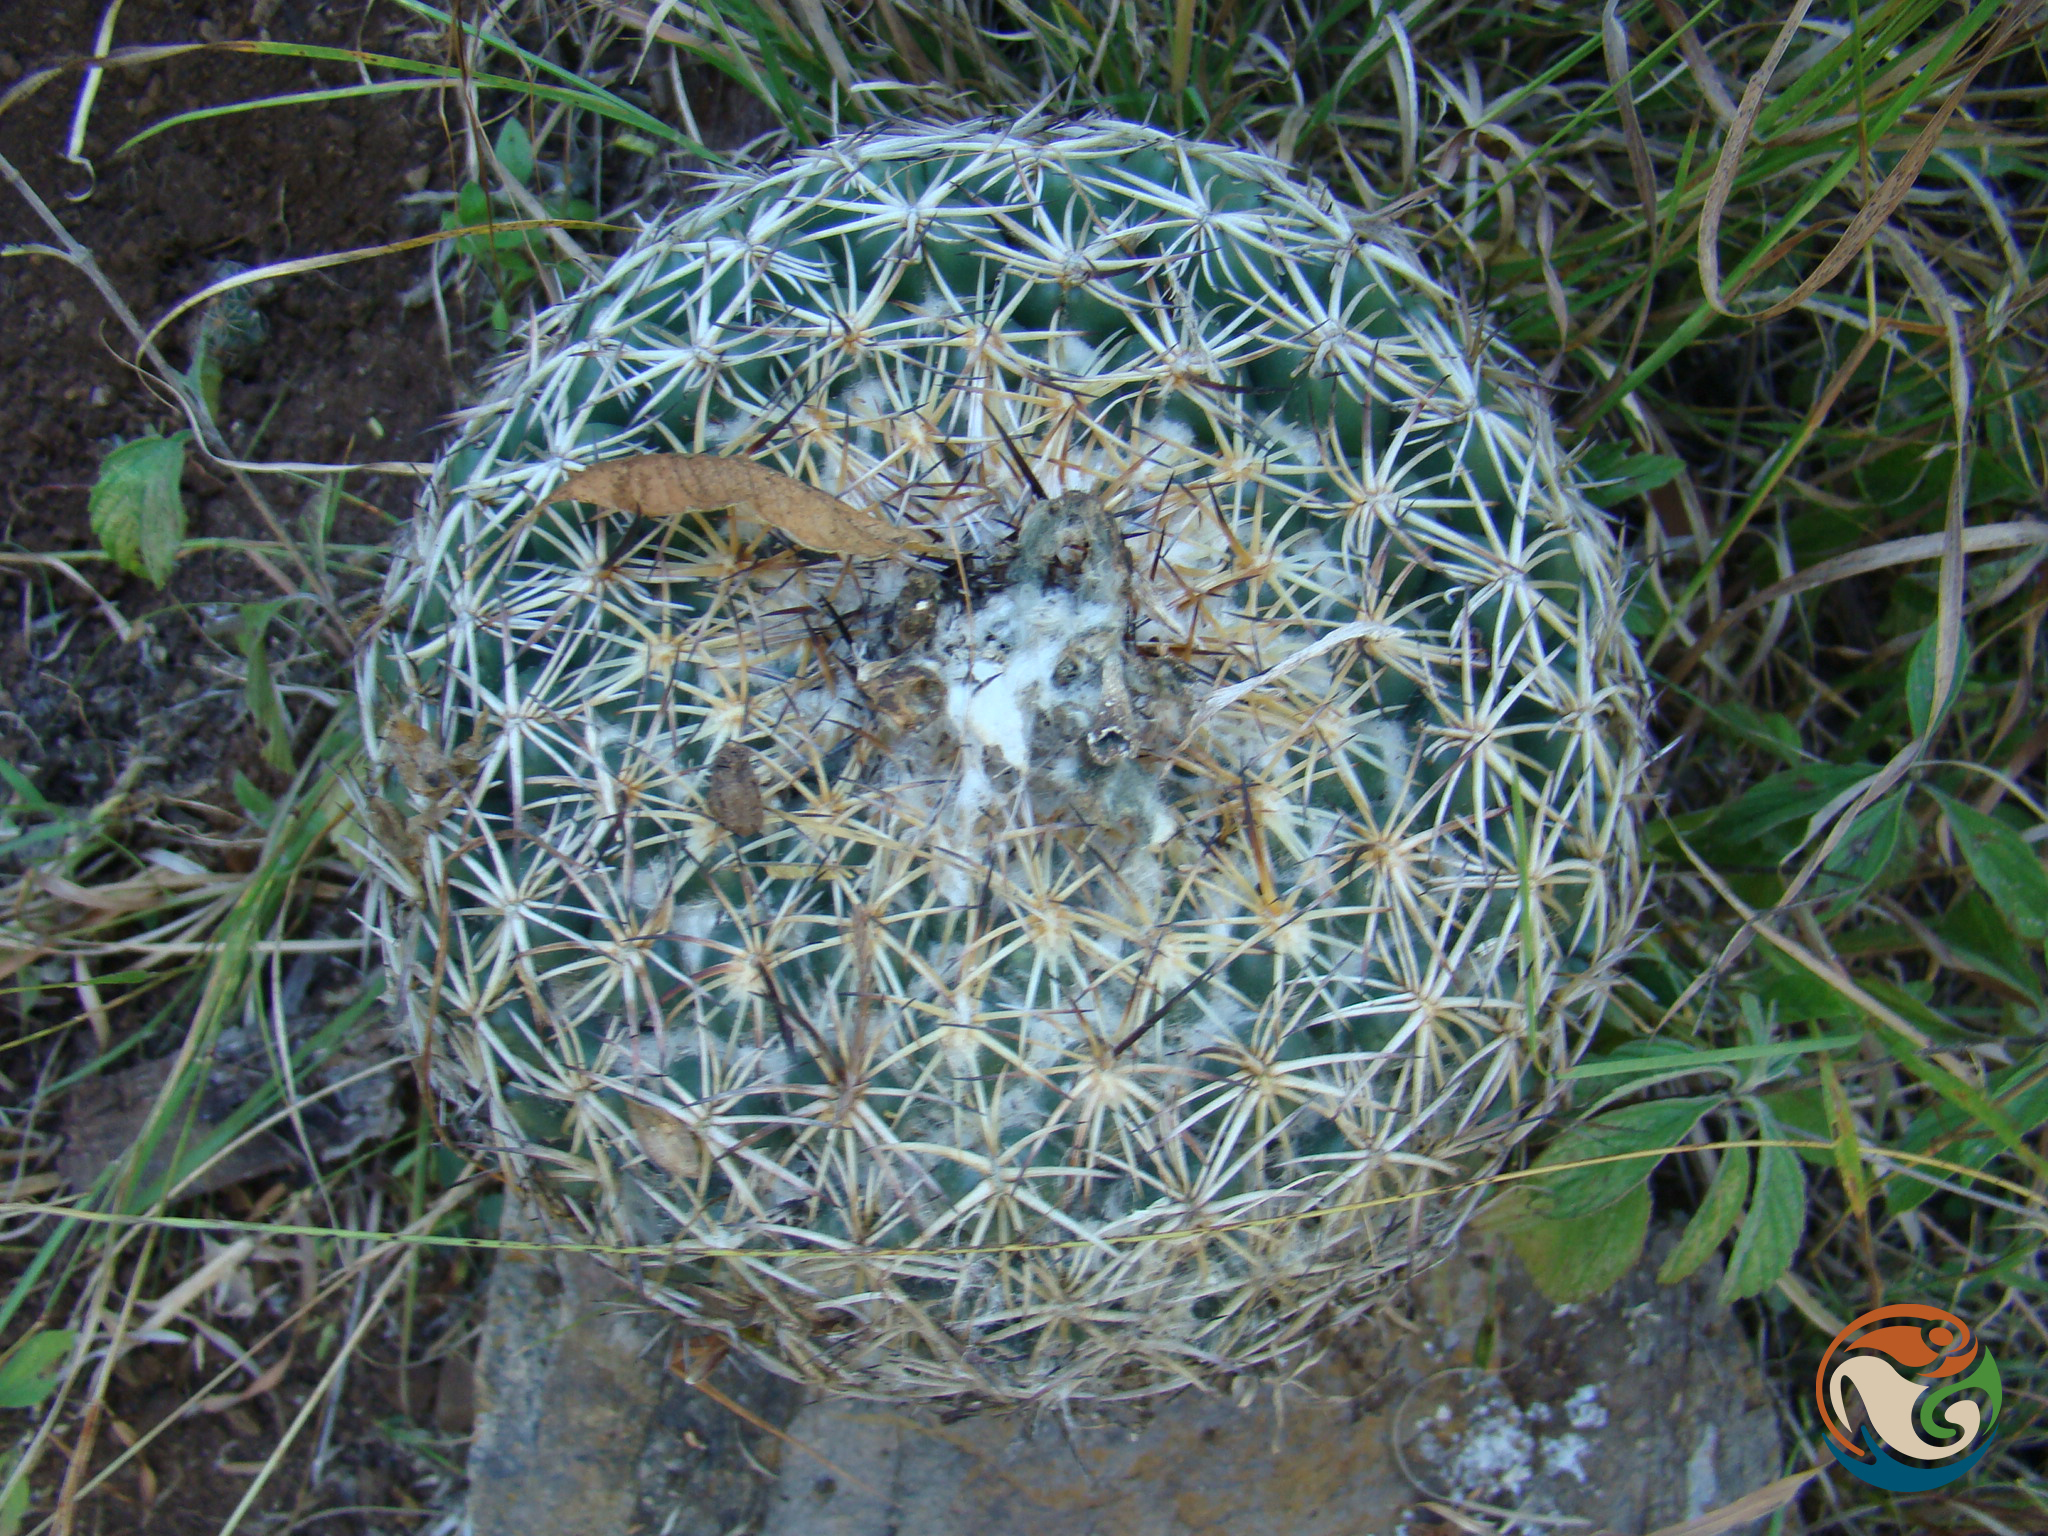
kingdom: Plantae
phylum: Tracheophyta
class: Magnoliopsida
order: Caryophyllales
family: Cactaceae
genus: Coryphantha
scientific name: Coryphantha pallida
